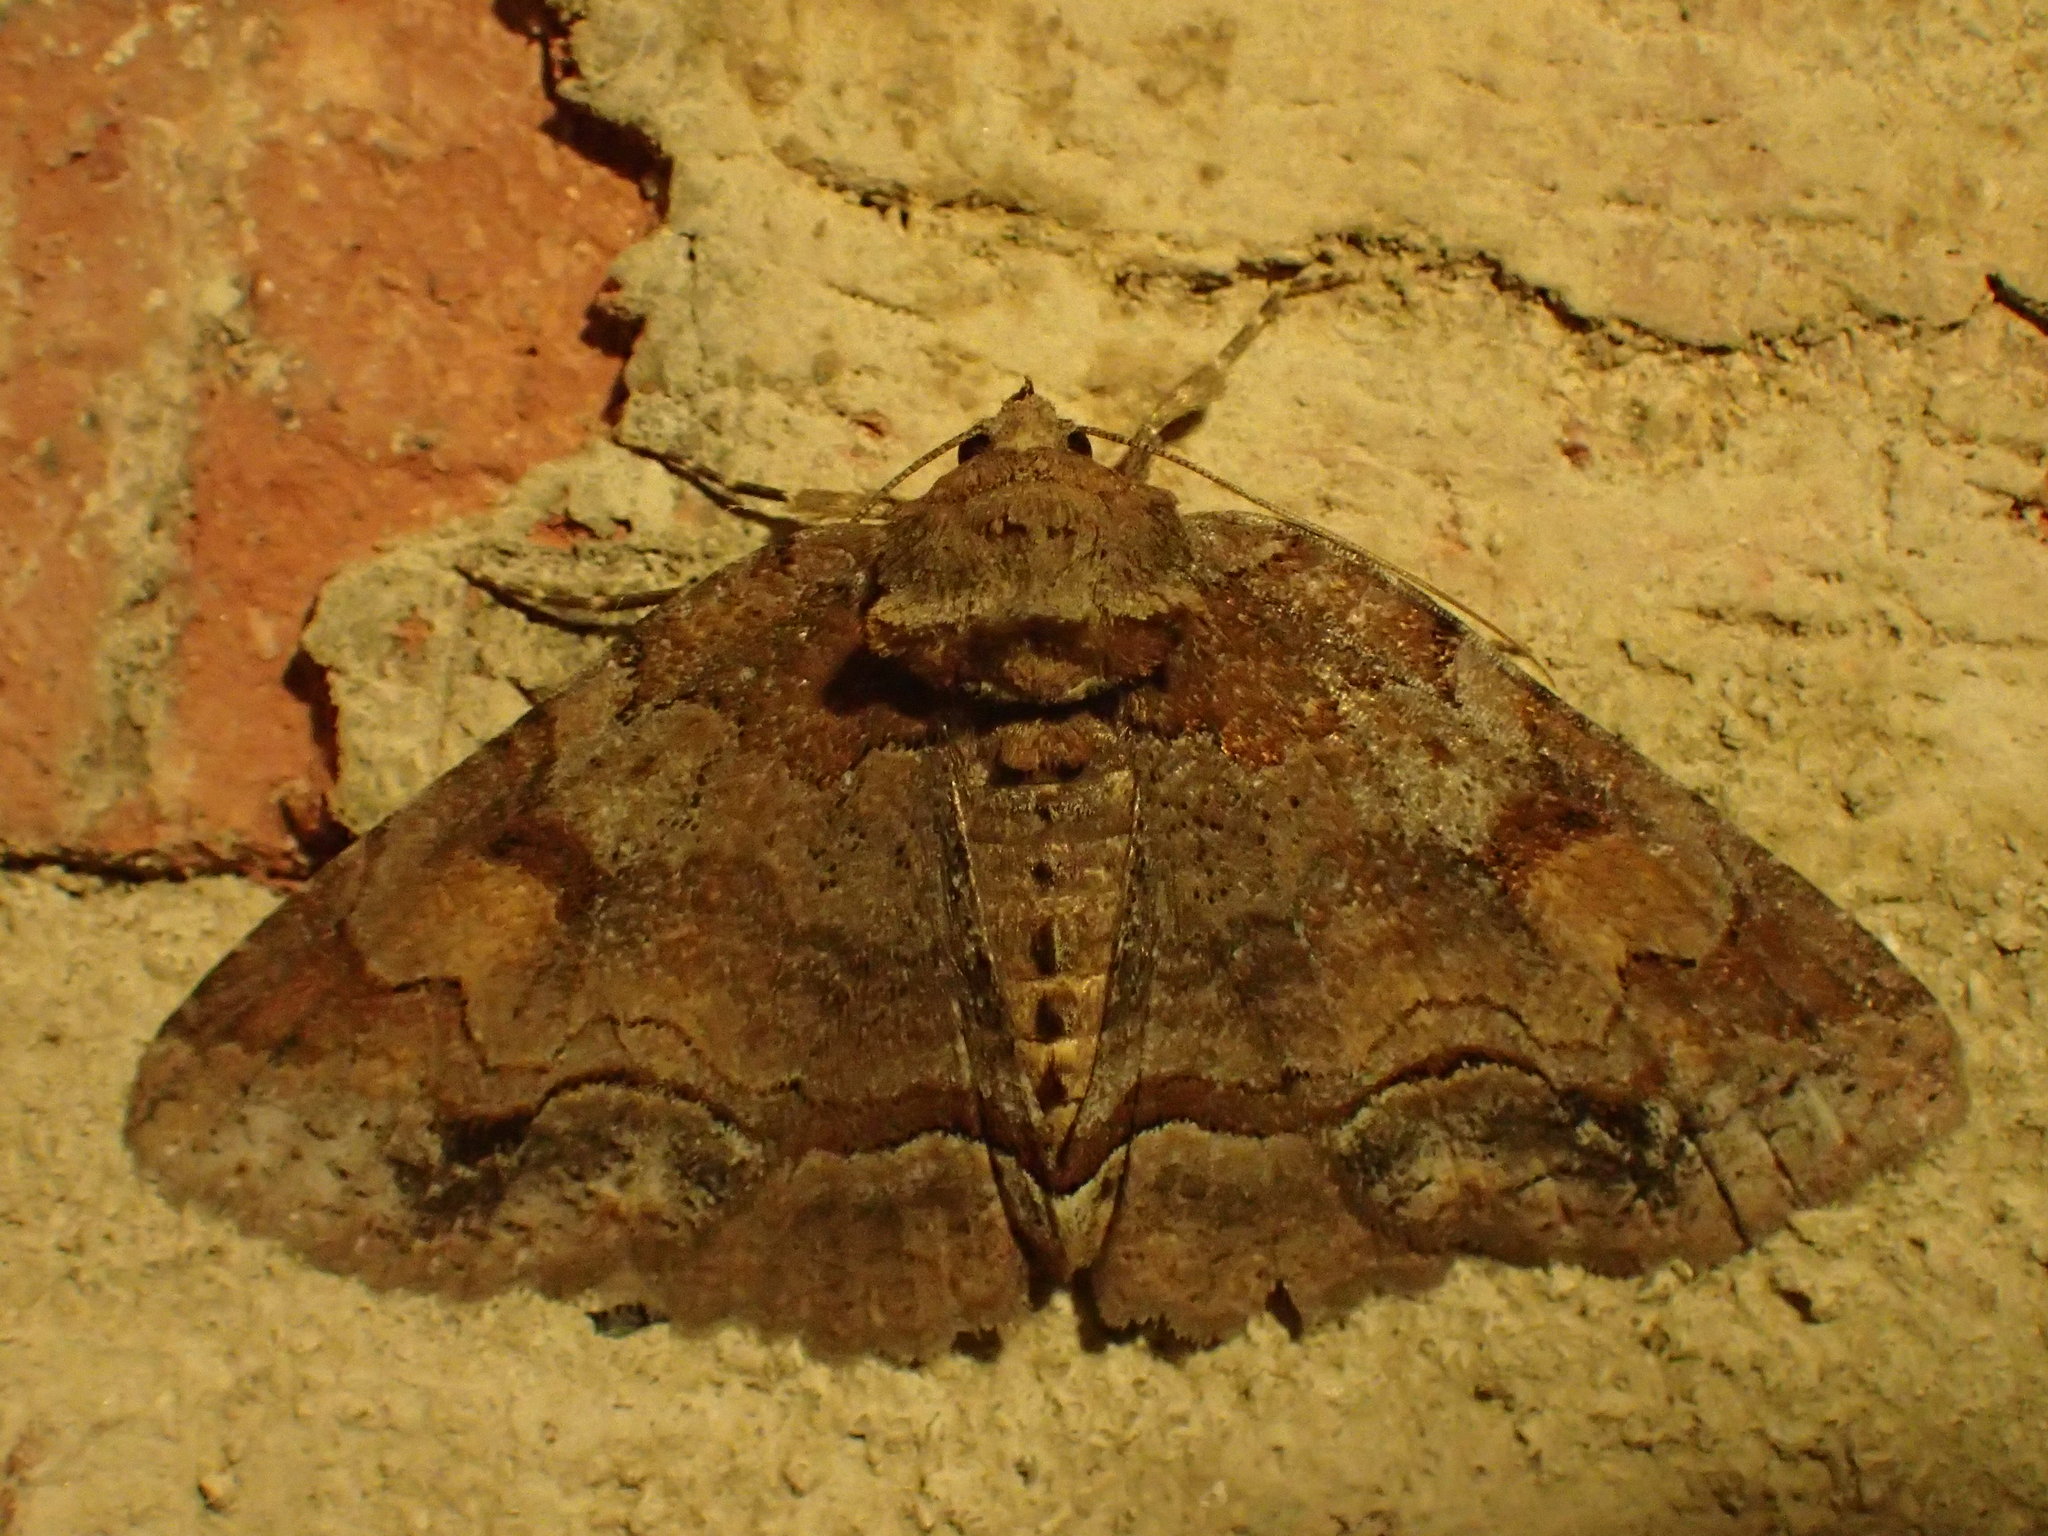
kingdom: Animalia
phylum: Arthropoda
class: Insecta
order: Lepidoptera
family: Erebidae
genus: Zale
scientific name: Zale metatoides
